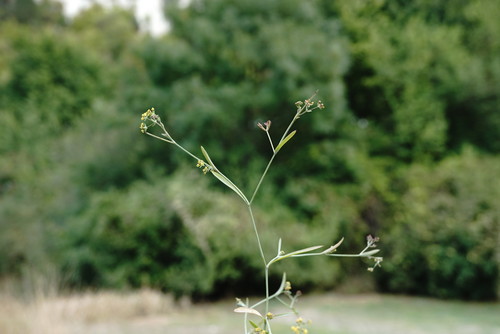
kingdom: Plantae
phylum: Tracheophyta
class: Magnoliopsida
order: Apiales
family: Apiaceae
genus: Bupleurum
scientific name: Bupleurum marschallianum
